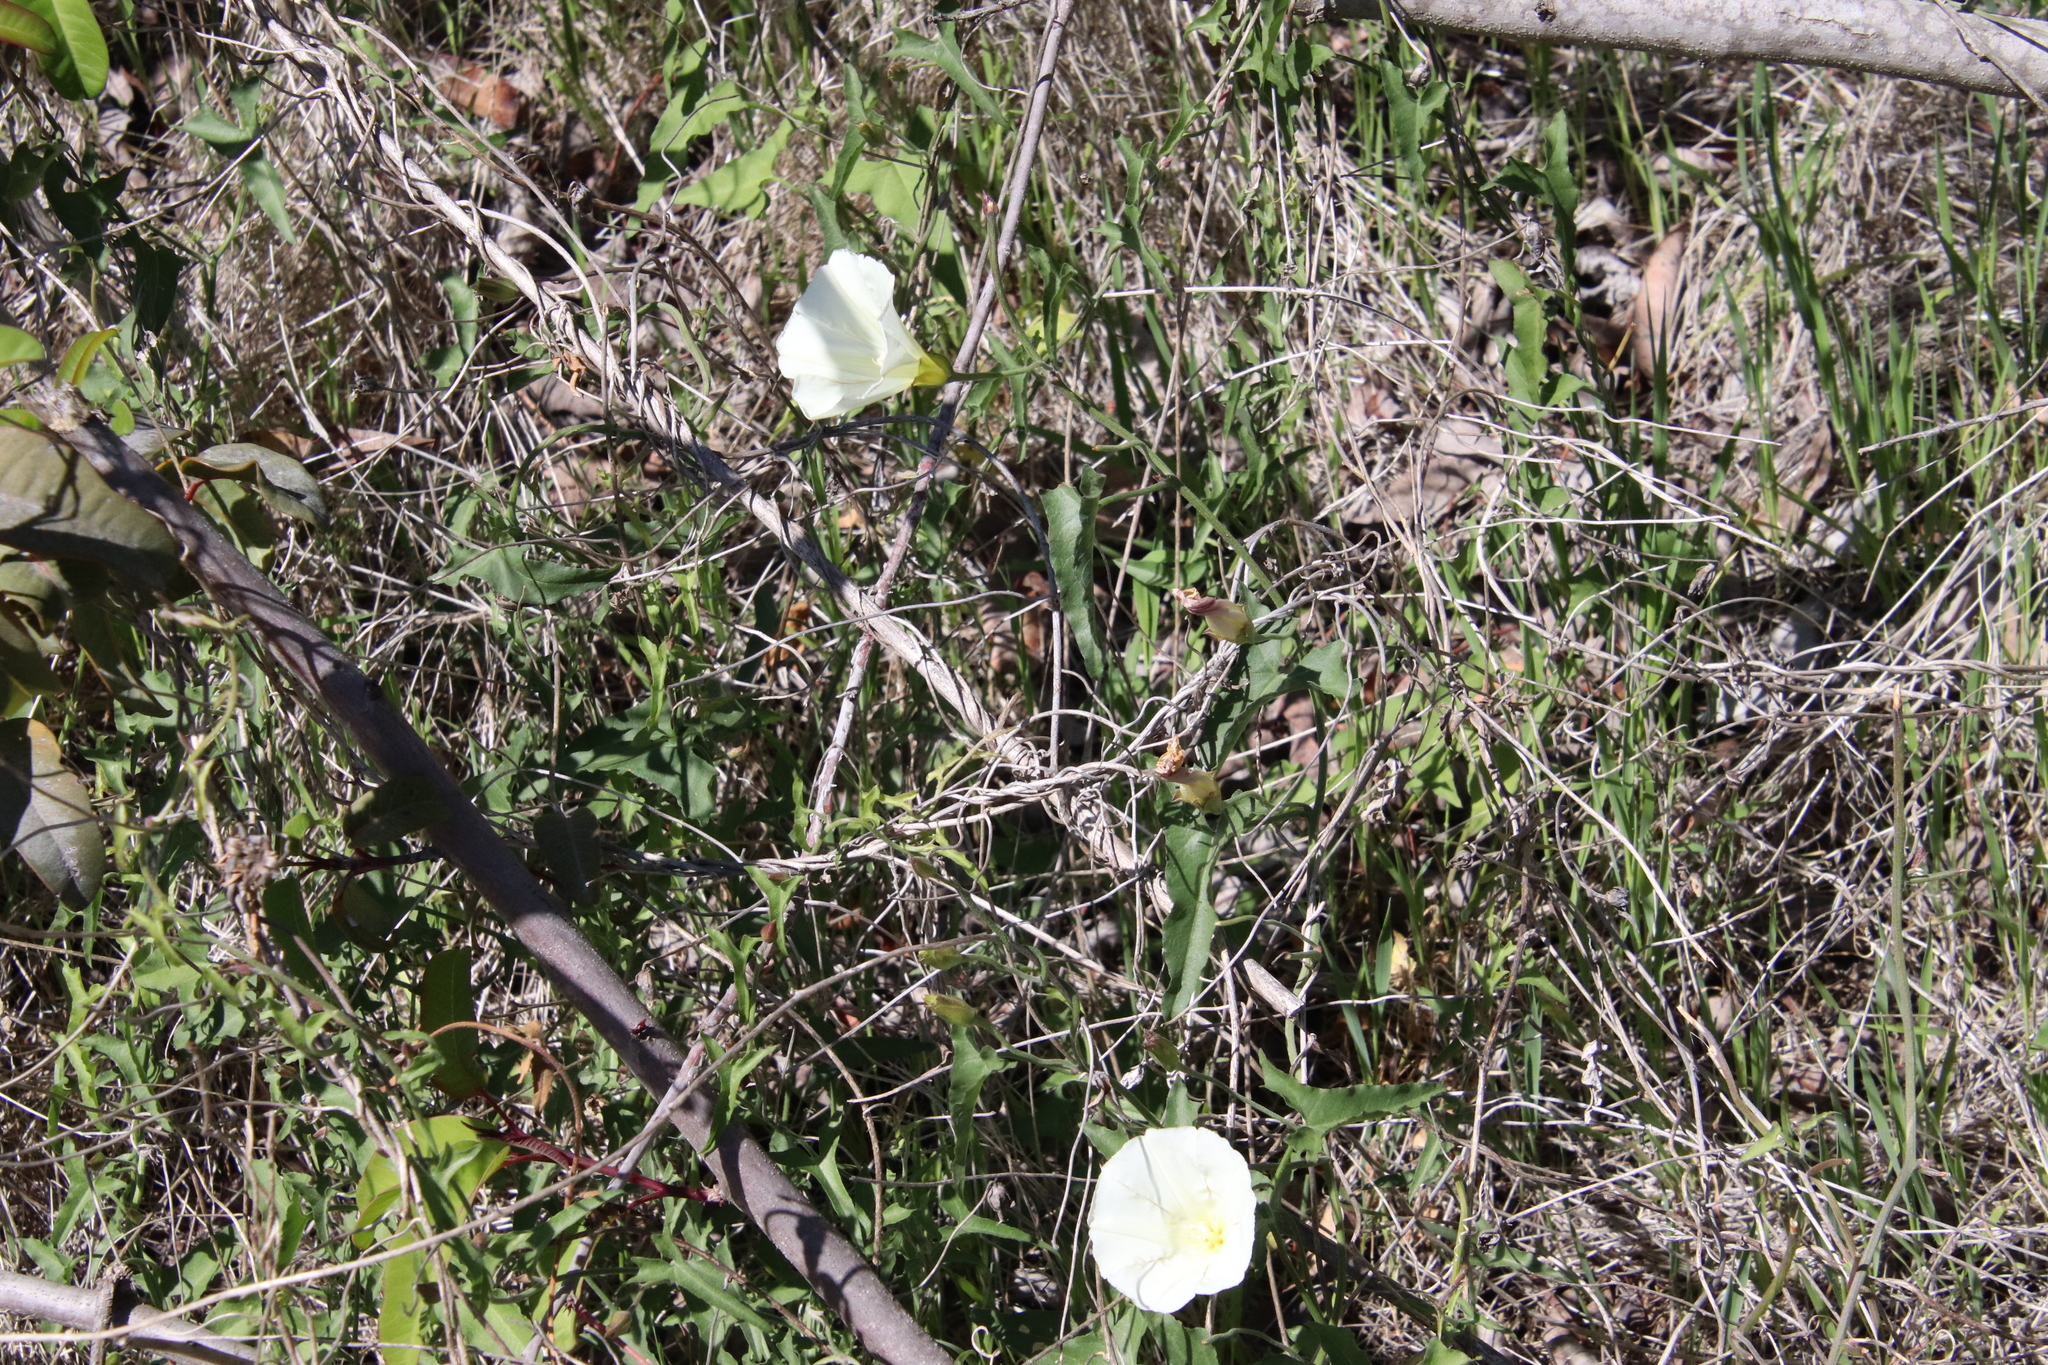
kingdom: Plantae
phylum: Tracheophyta
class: Magnoliopsida
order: Solanales
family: Convolvulaceae
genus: Calystegia
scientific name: Calystegia macrostegia
